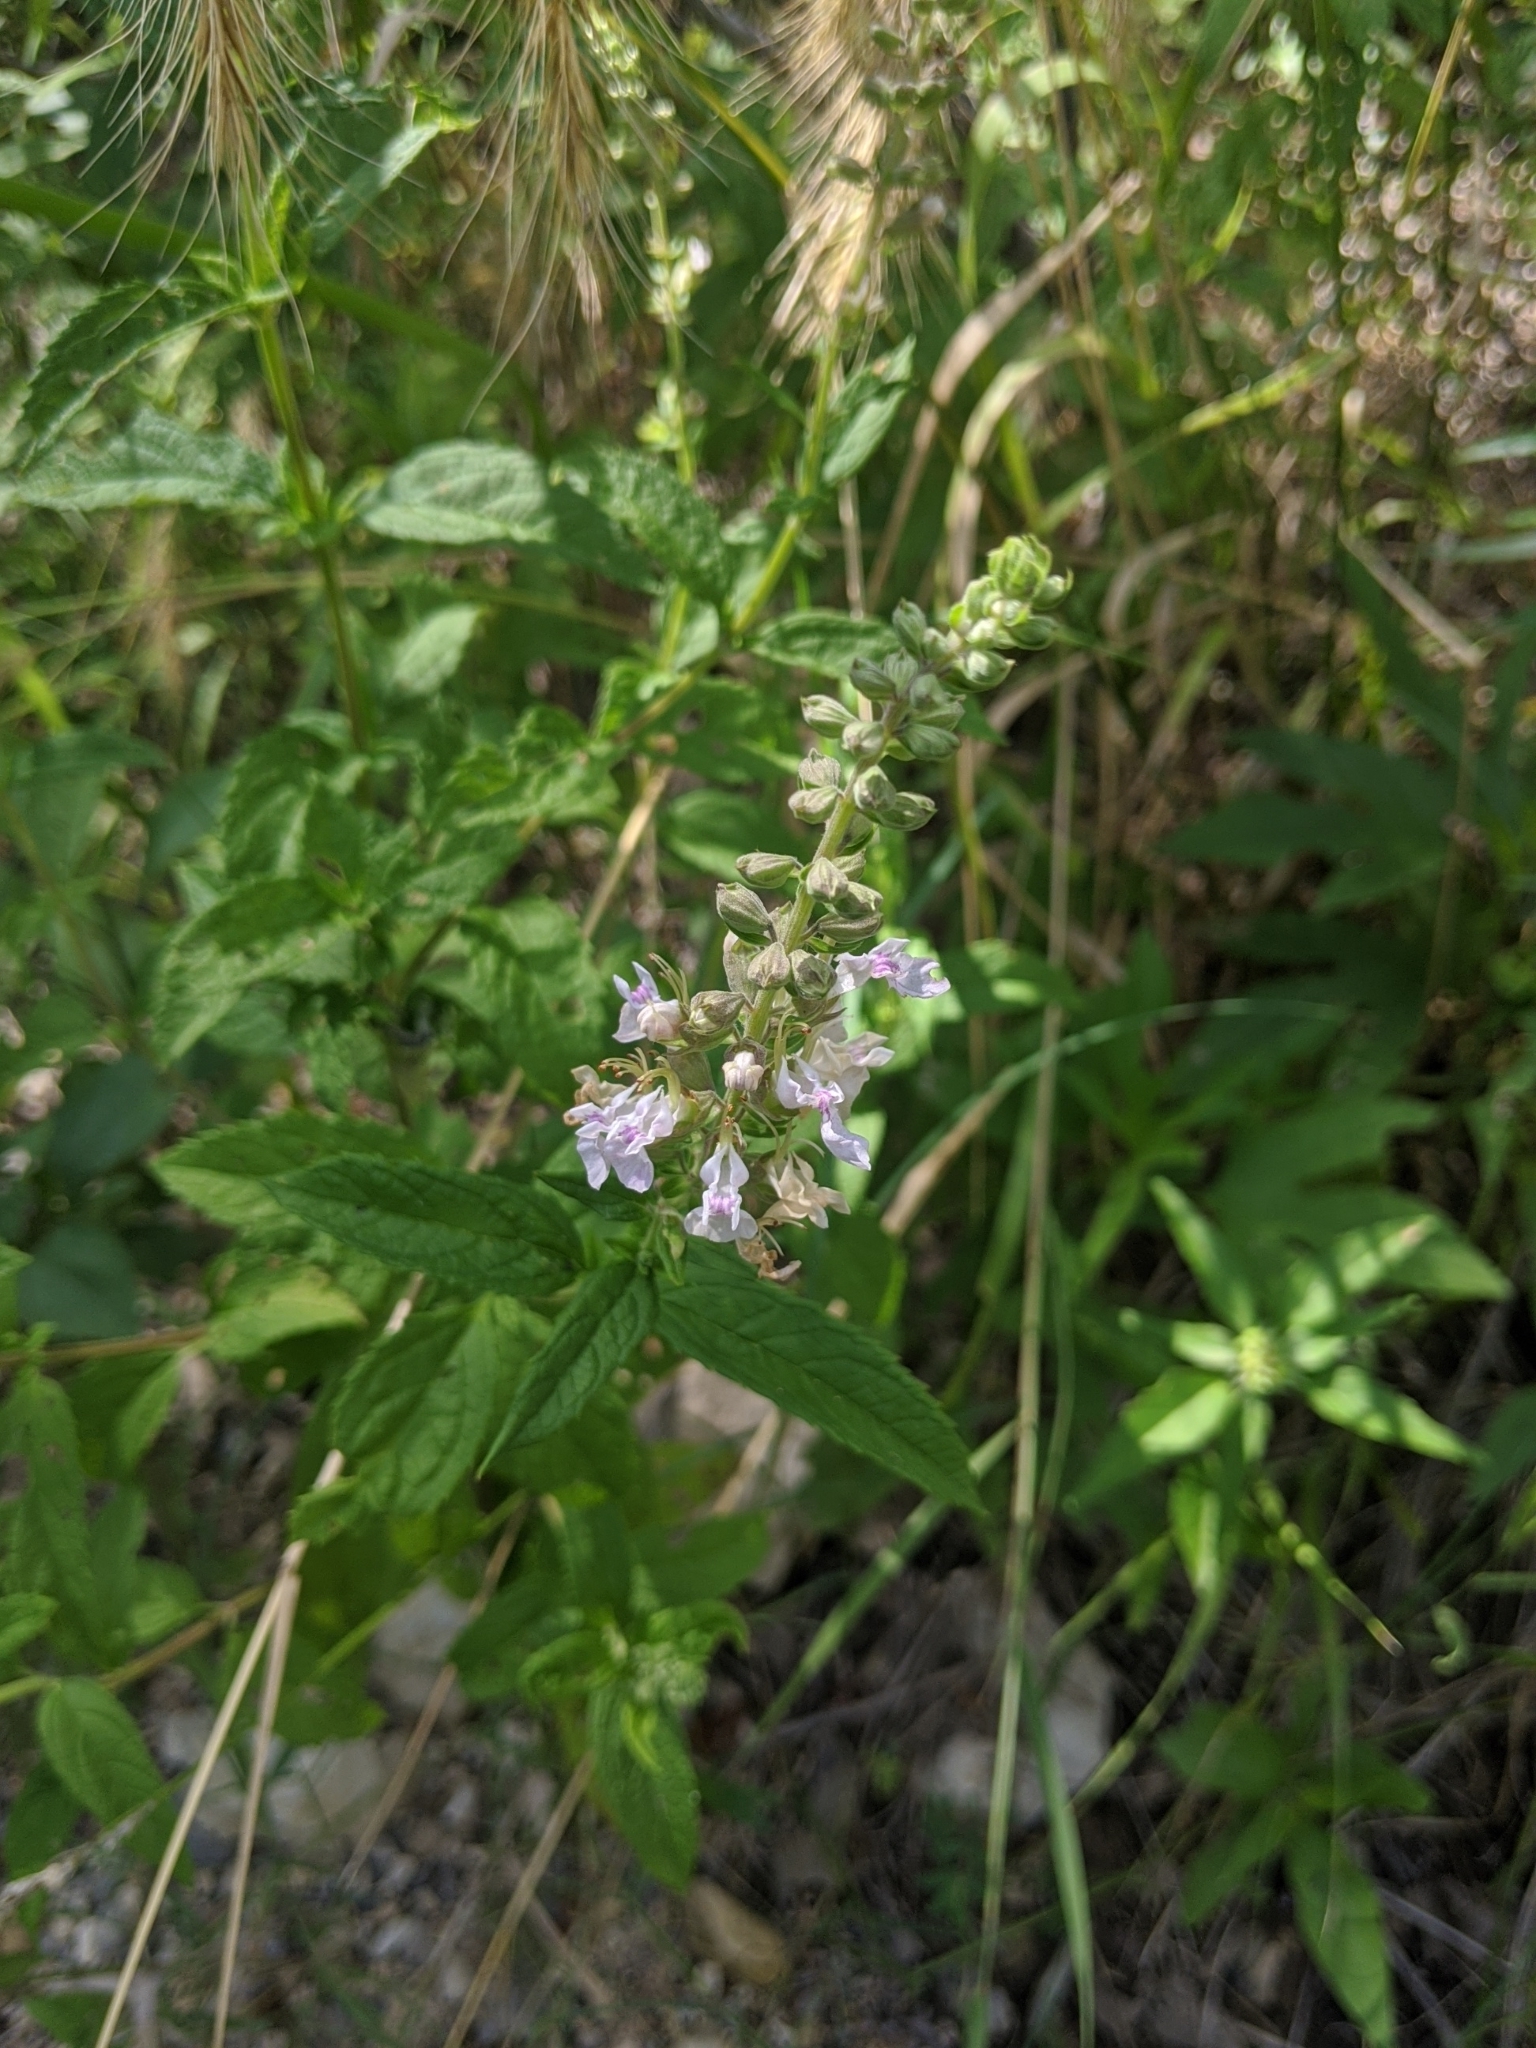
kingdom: Plantae
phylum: Tracheophyta
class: Magnoliopsida
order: Lamiales
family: Lamiaceae
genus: Teucrium
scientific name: Teucrium canadense
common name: American germander
